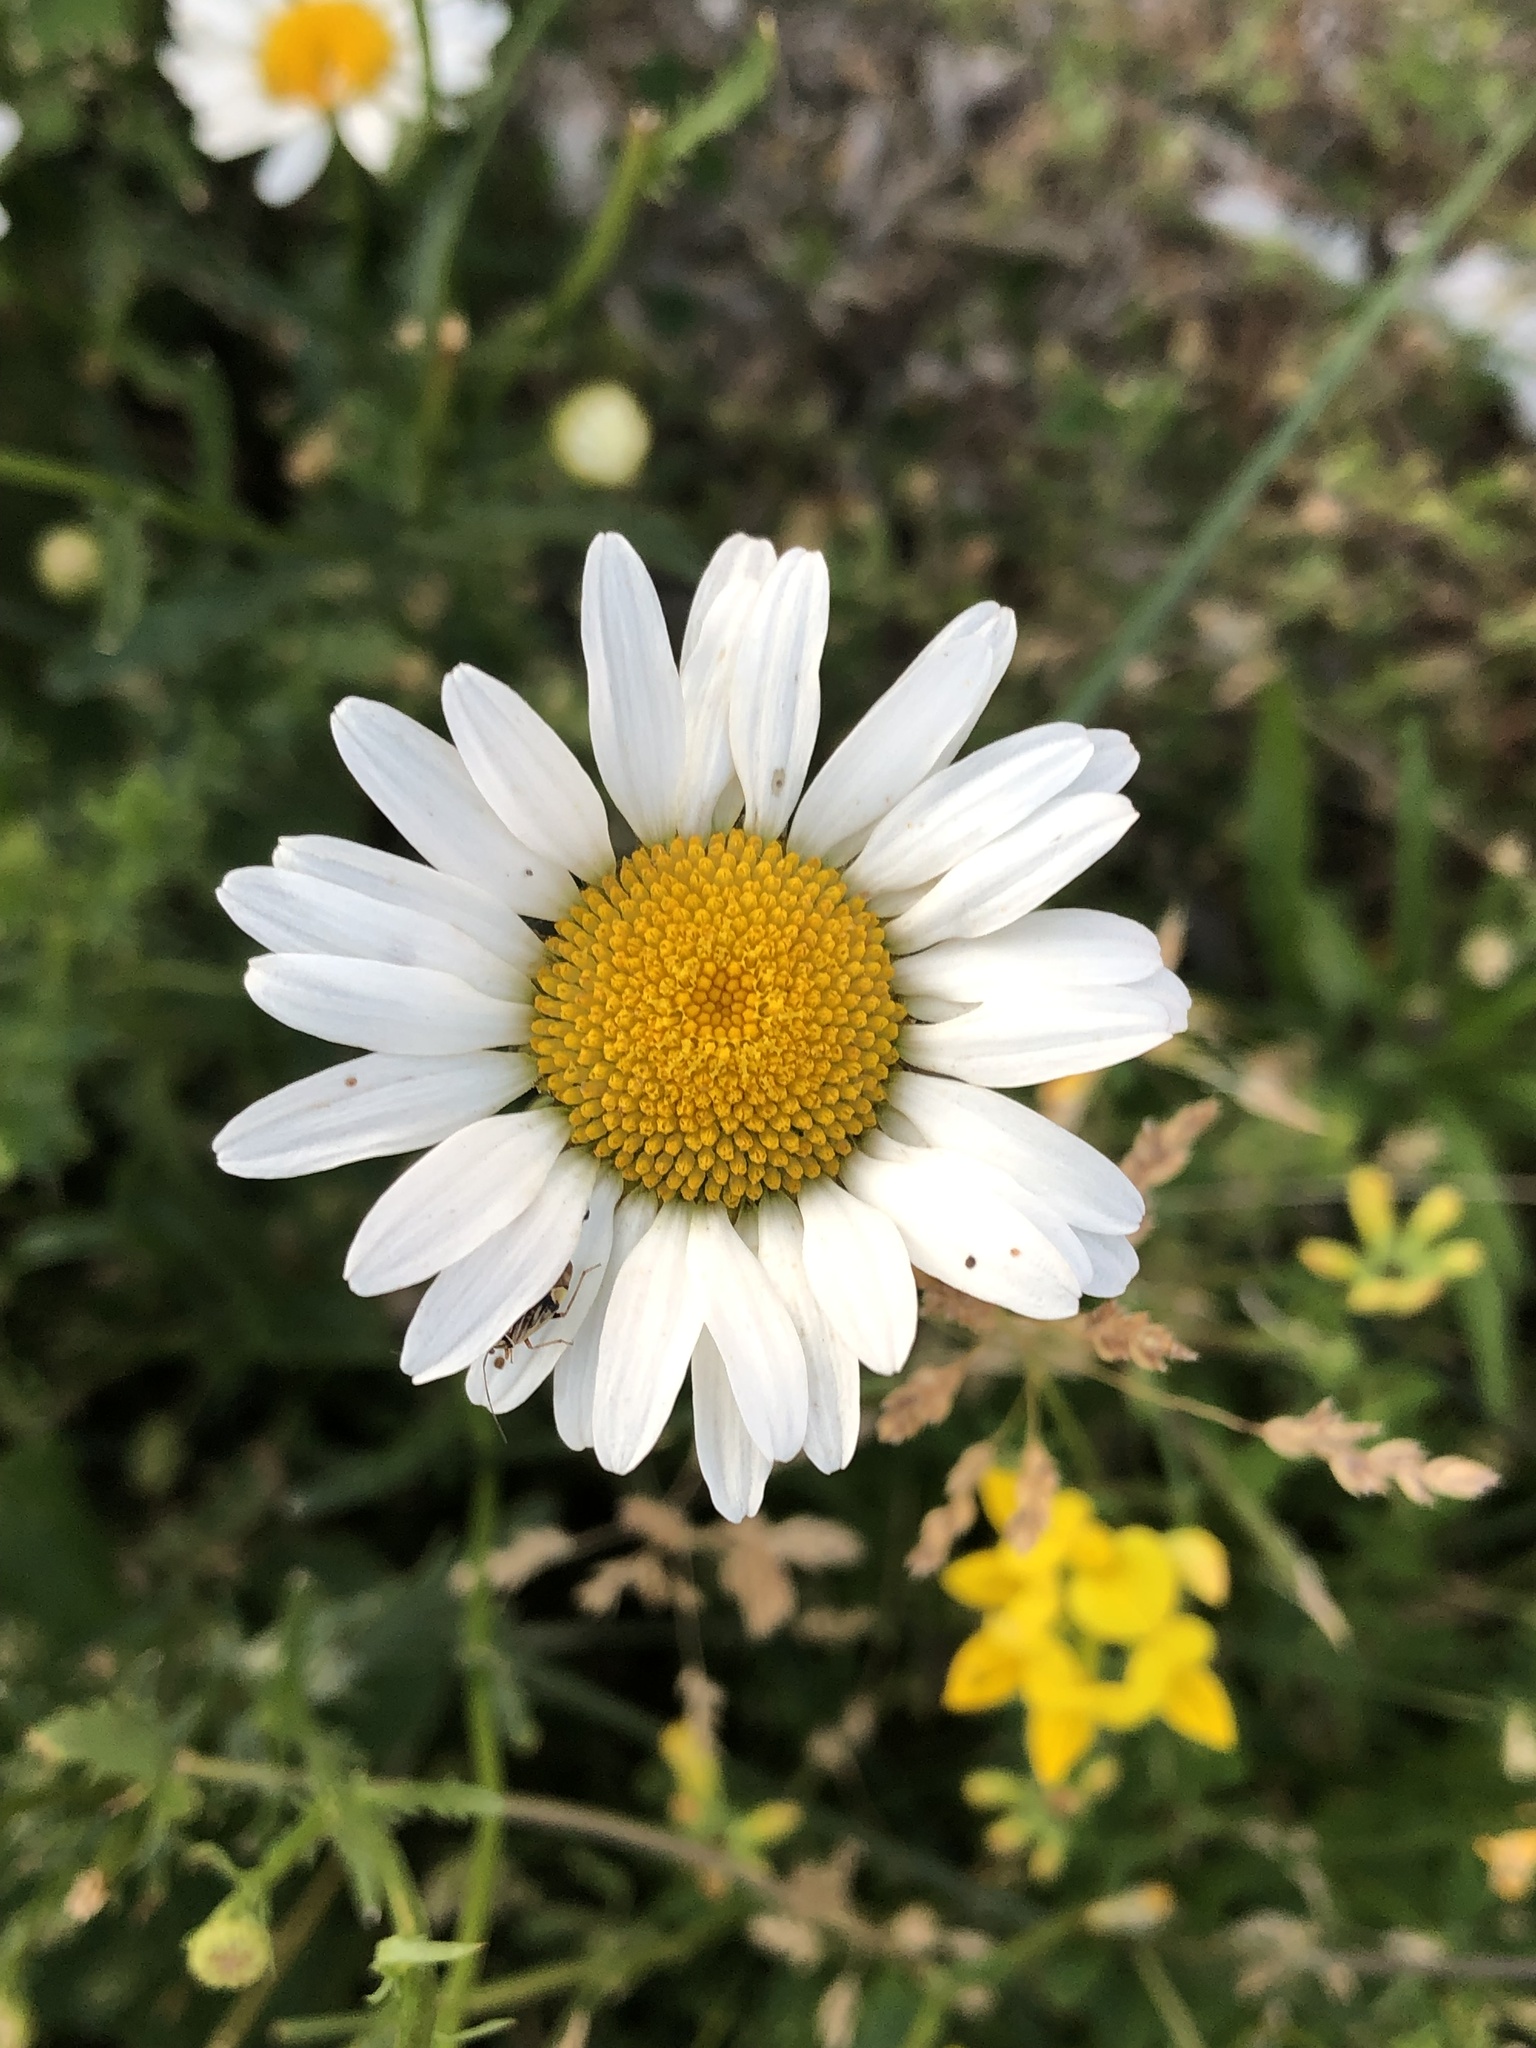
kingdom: Plantae
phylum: Tracheophyta
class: Magnoliopsida
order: Asterales
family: Asteraceae
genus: Leucanthemum
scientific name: Leucanthemum vulgare
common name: Oxeye daisy
